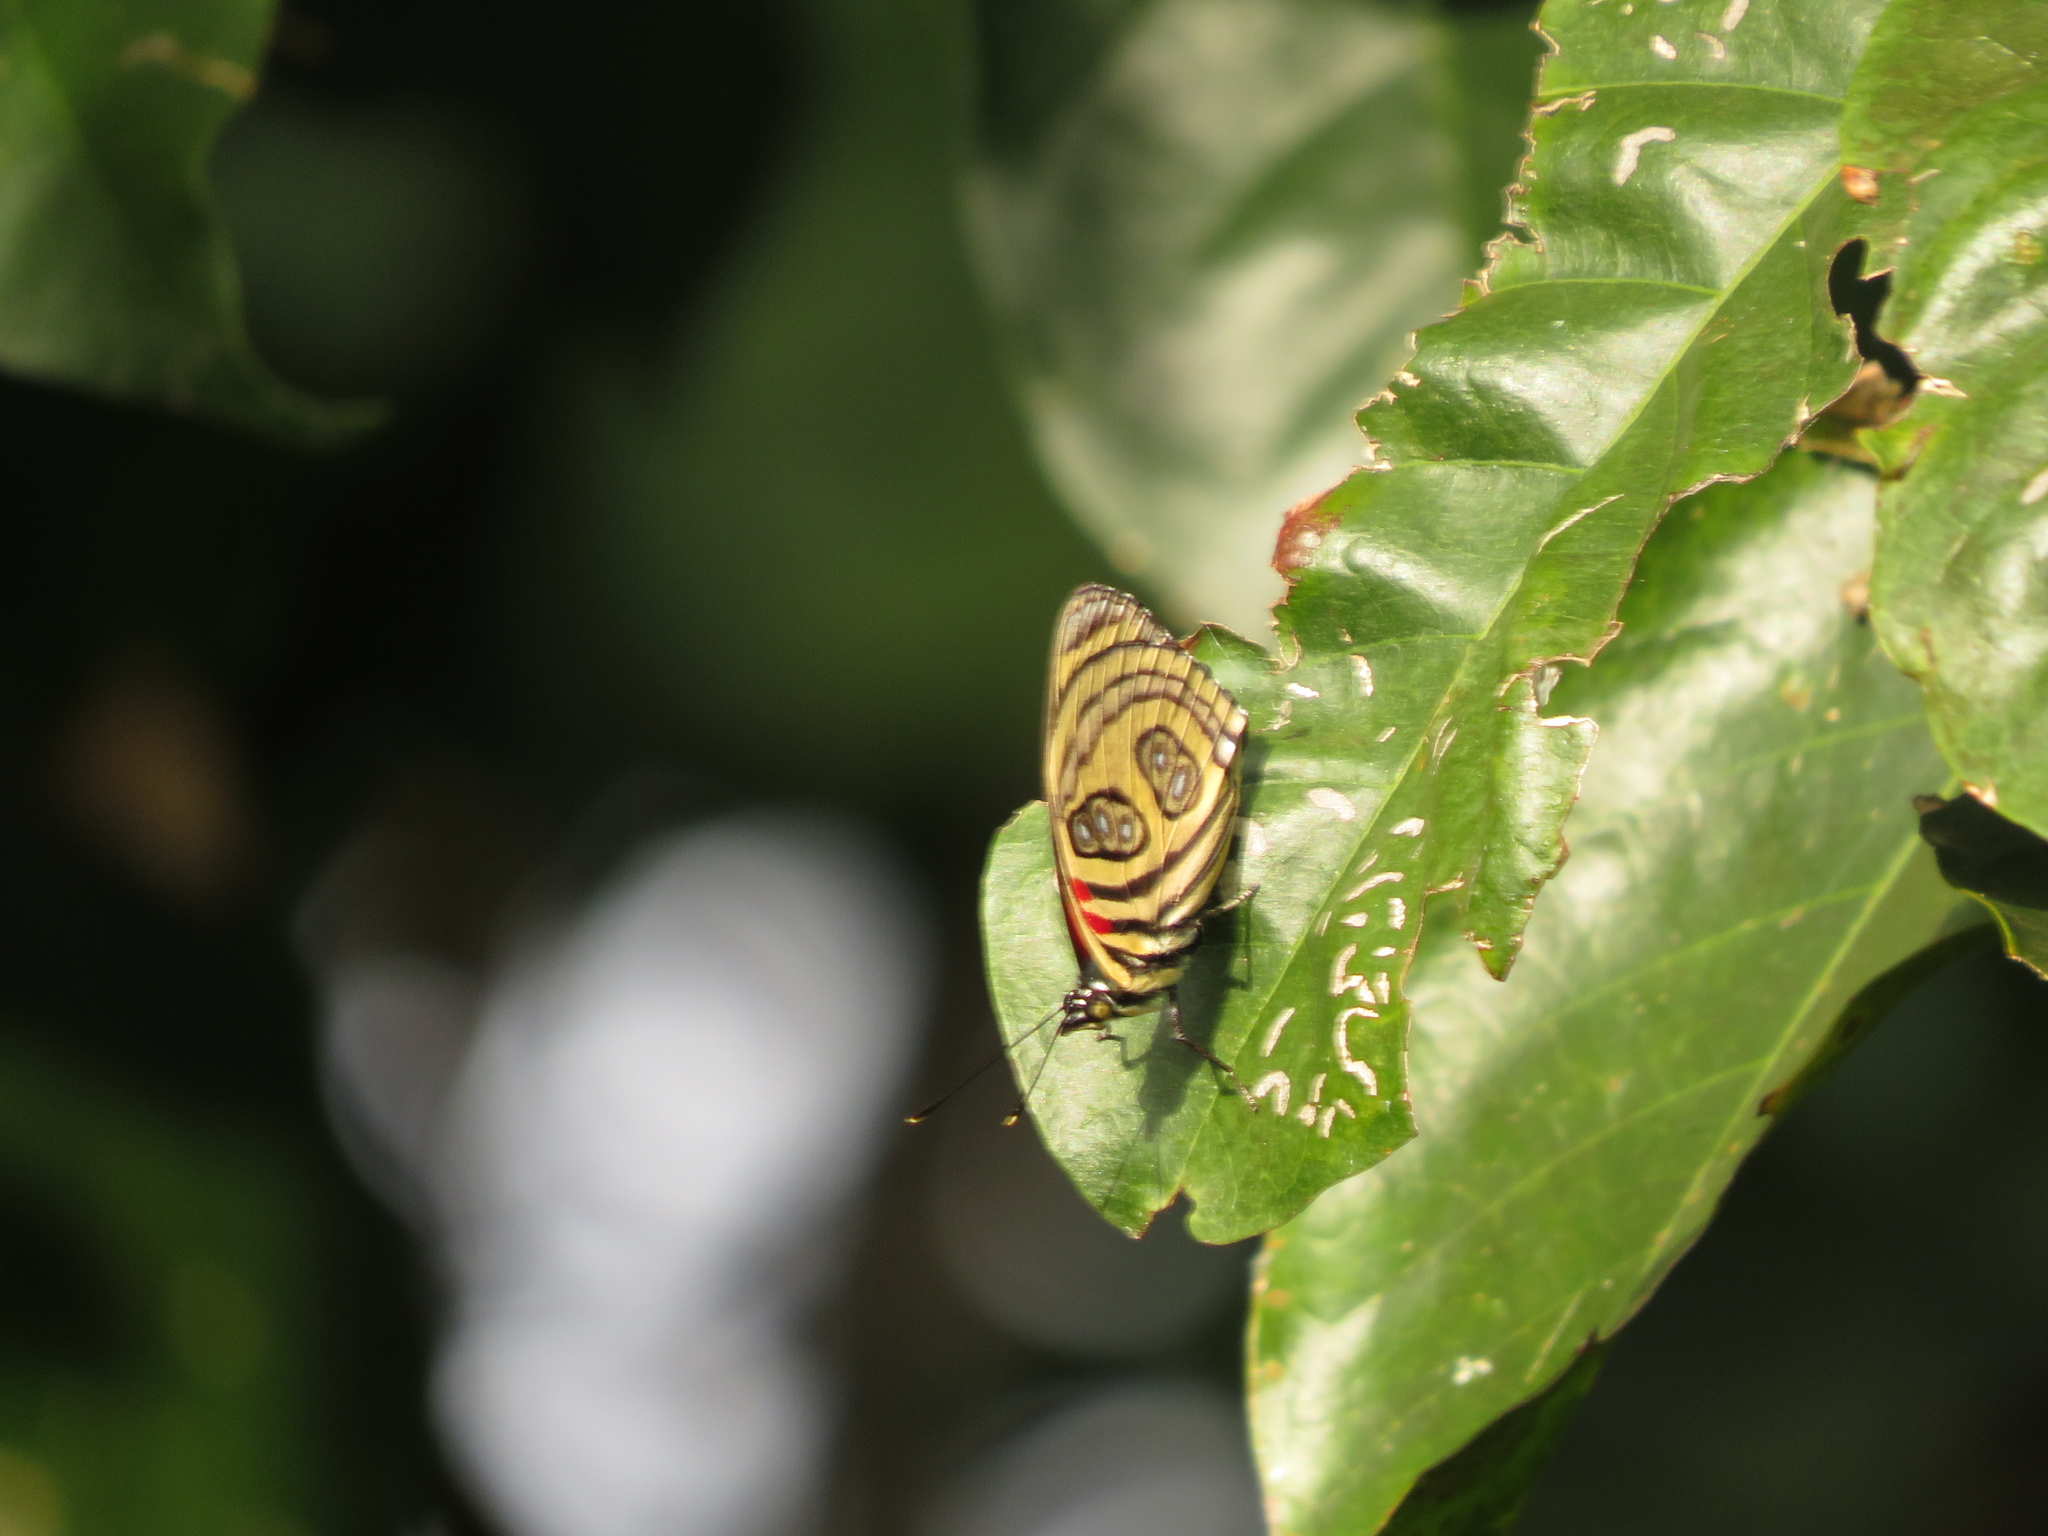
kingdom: Animalia
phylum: Arthropoda
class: Insecta
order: Lepidoptera
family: Nymphalidae
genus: Catagramma
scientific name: Catagramma pygas
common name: Godart's numberwing
